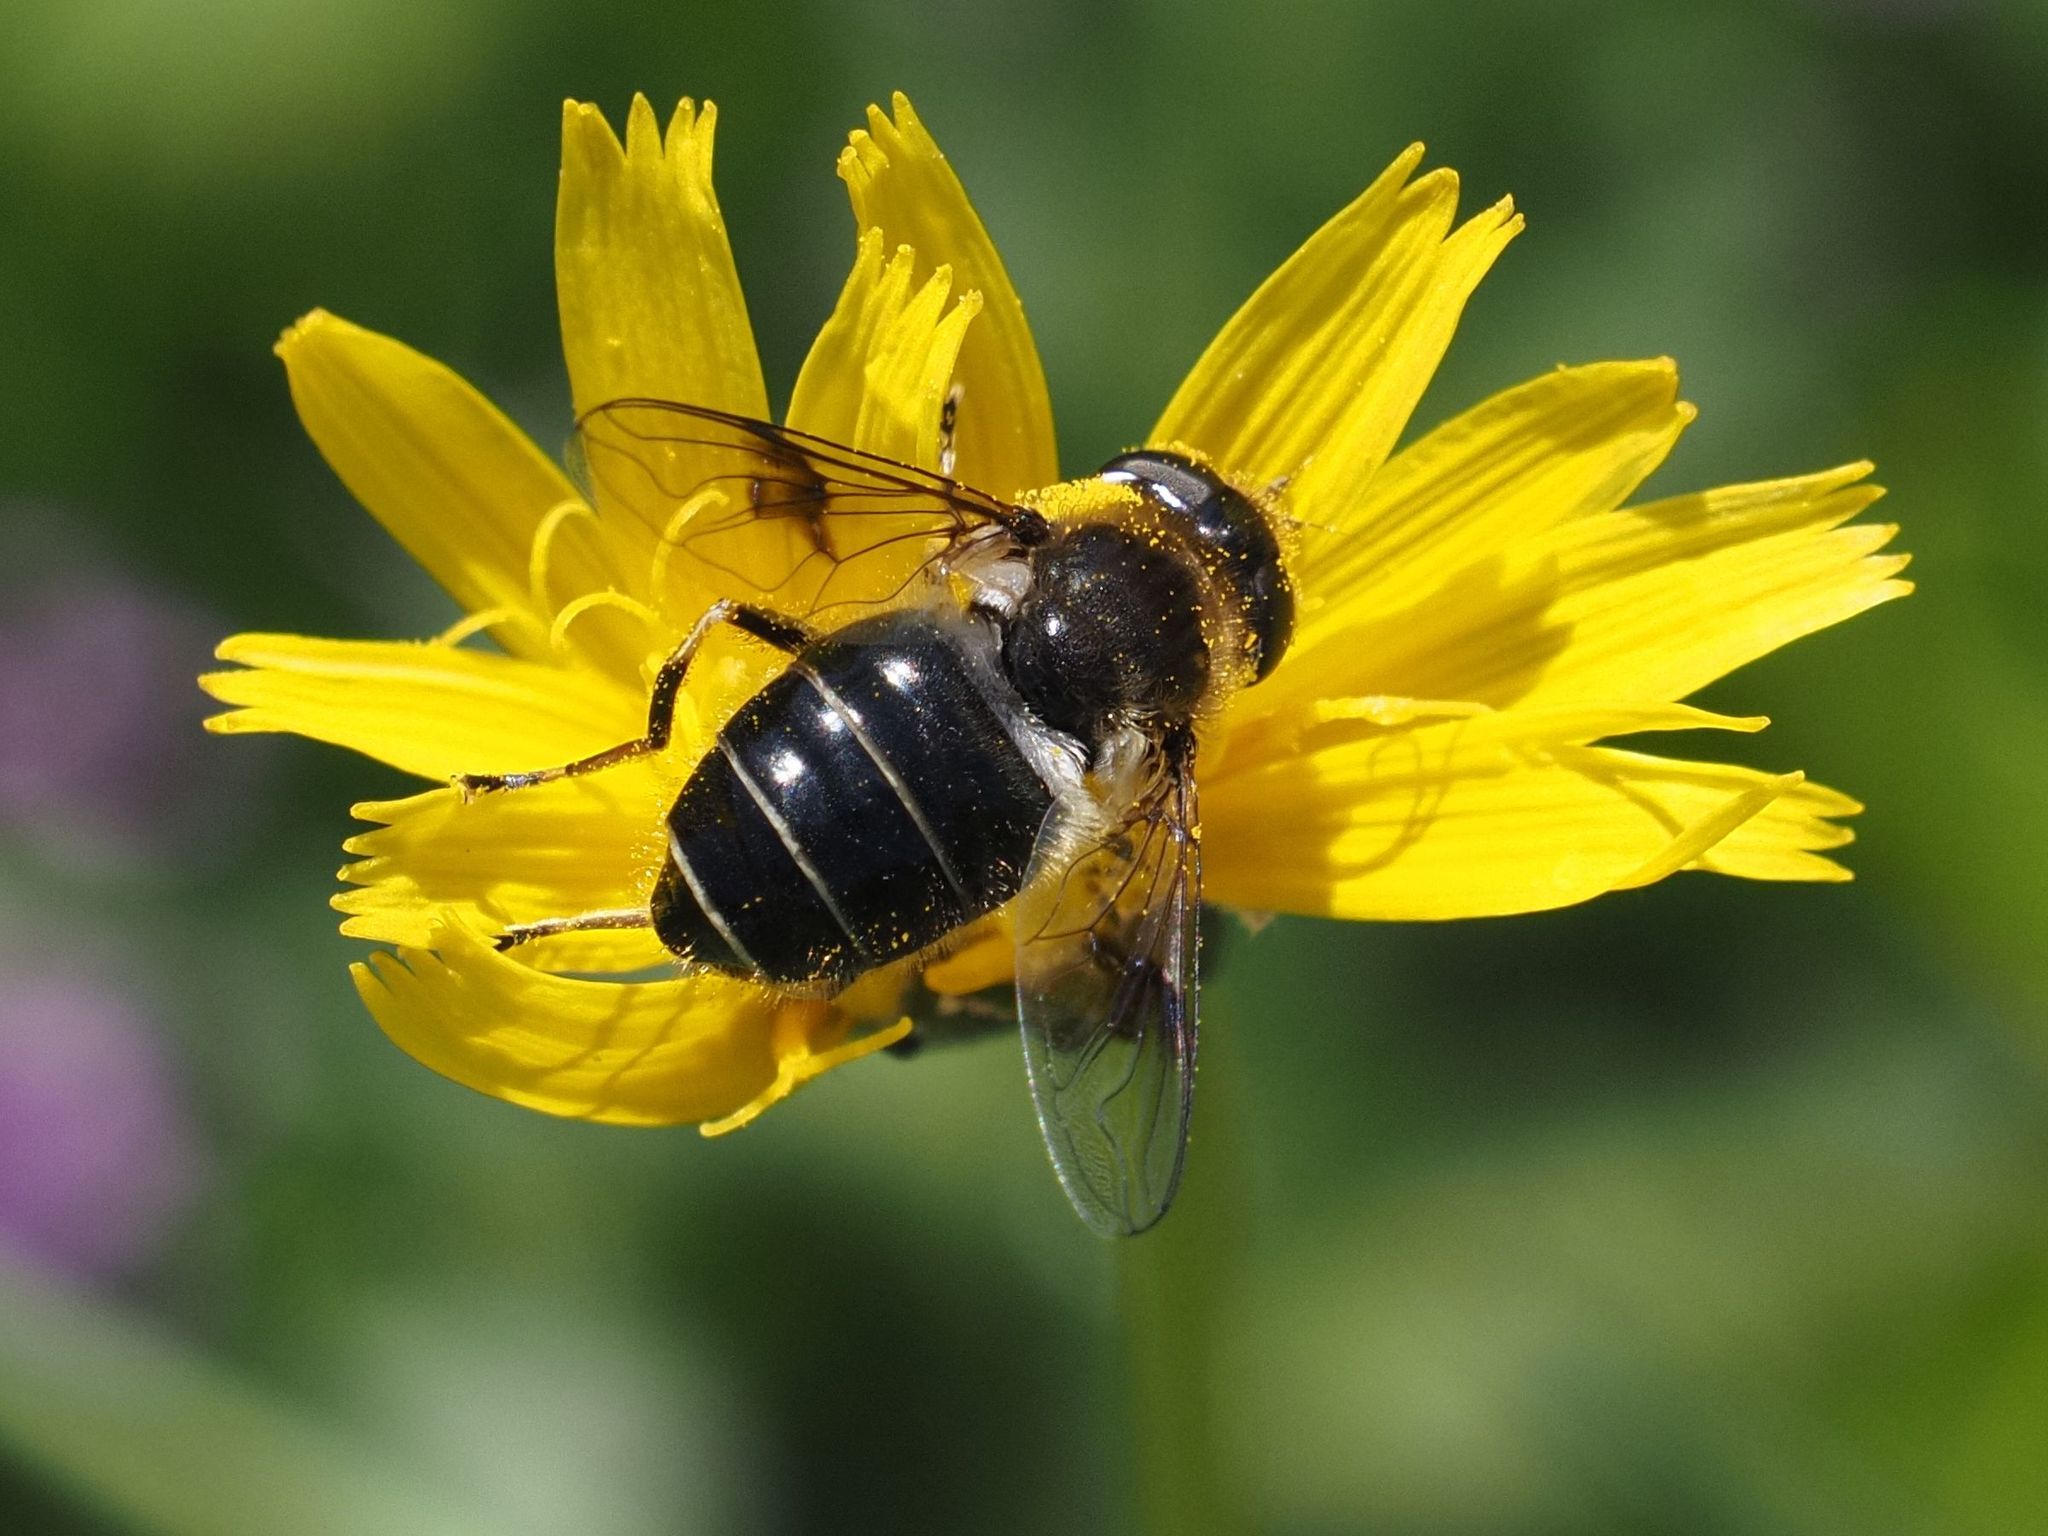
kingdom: Animalia
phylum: Arthropoda
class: Insecta
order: Diptera
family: Syrphidae
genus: Eristalis
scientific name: Eristalis rupium
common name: Hover fly
